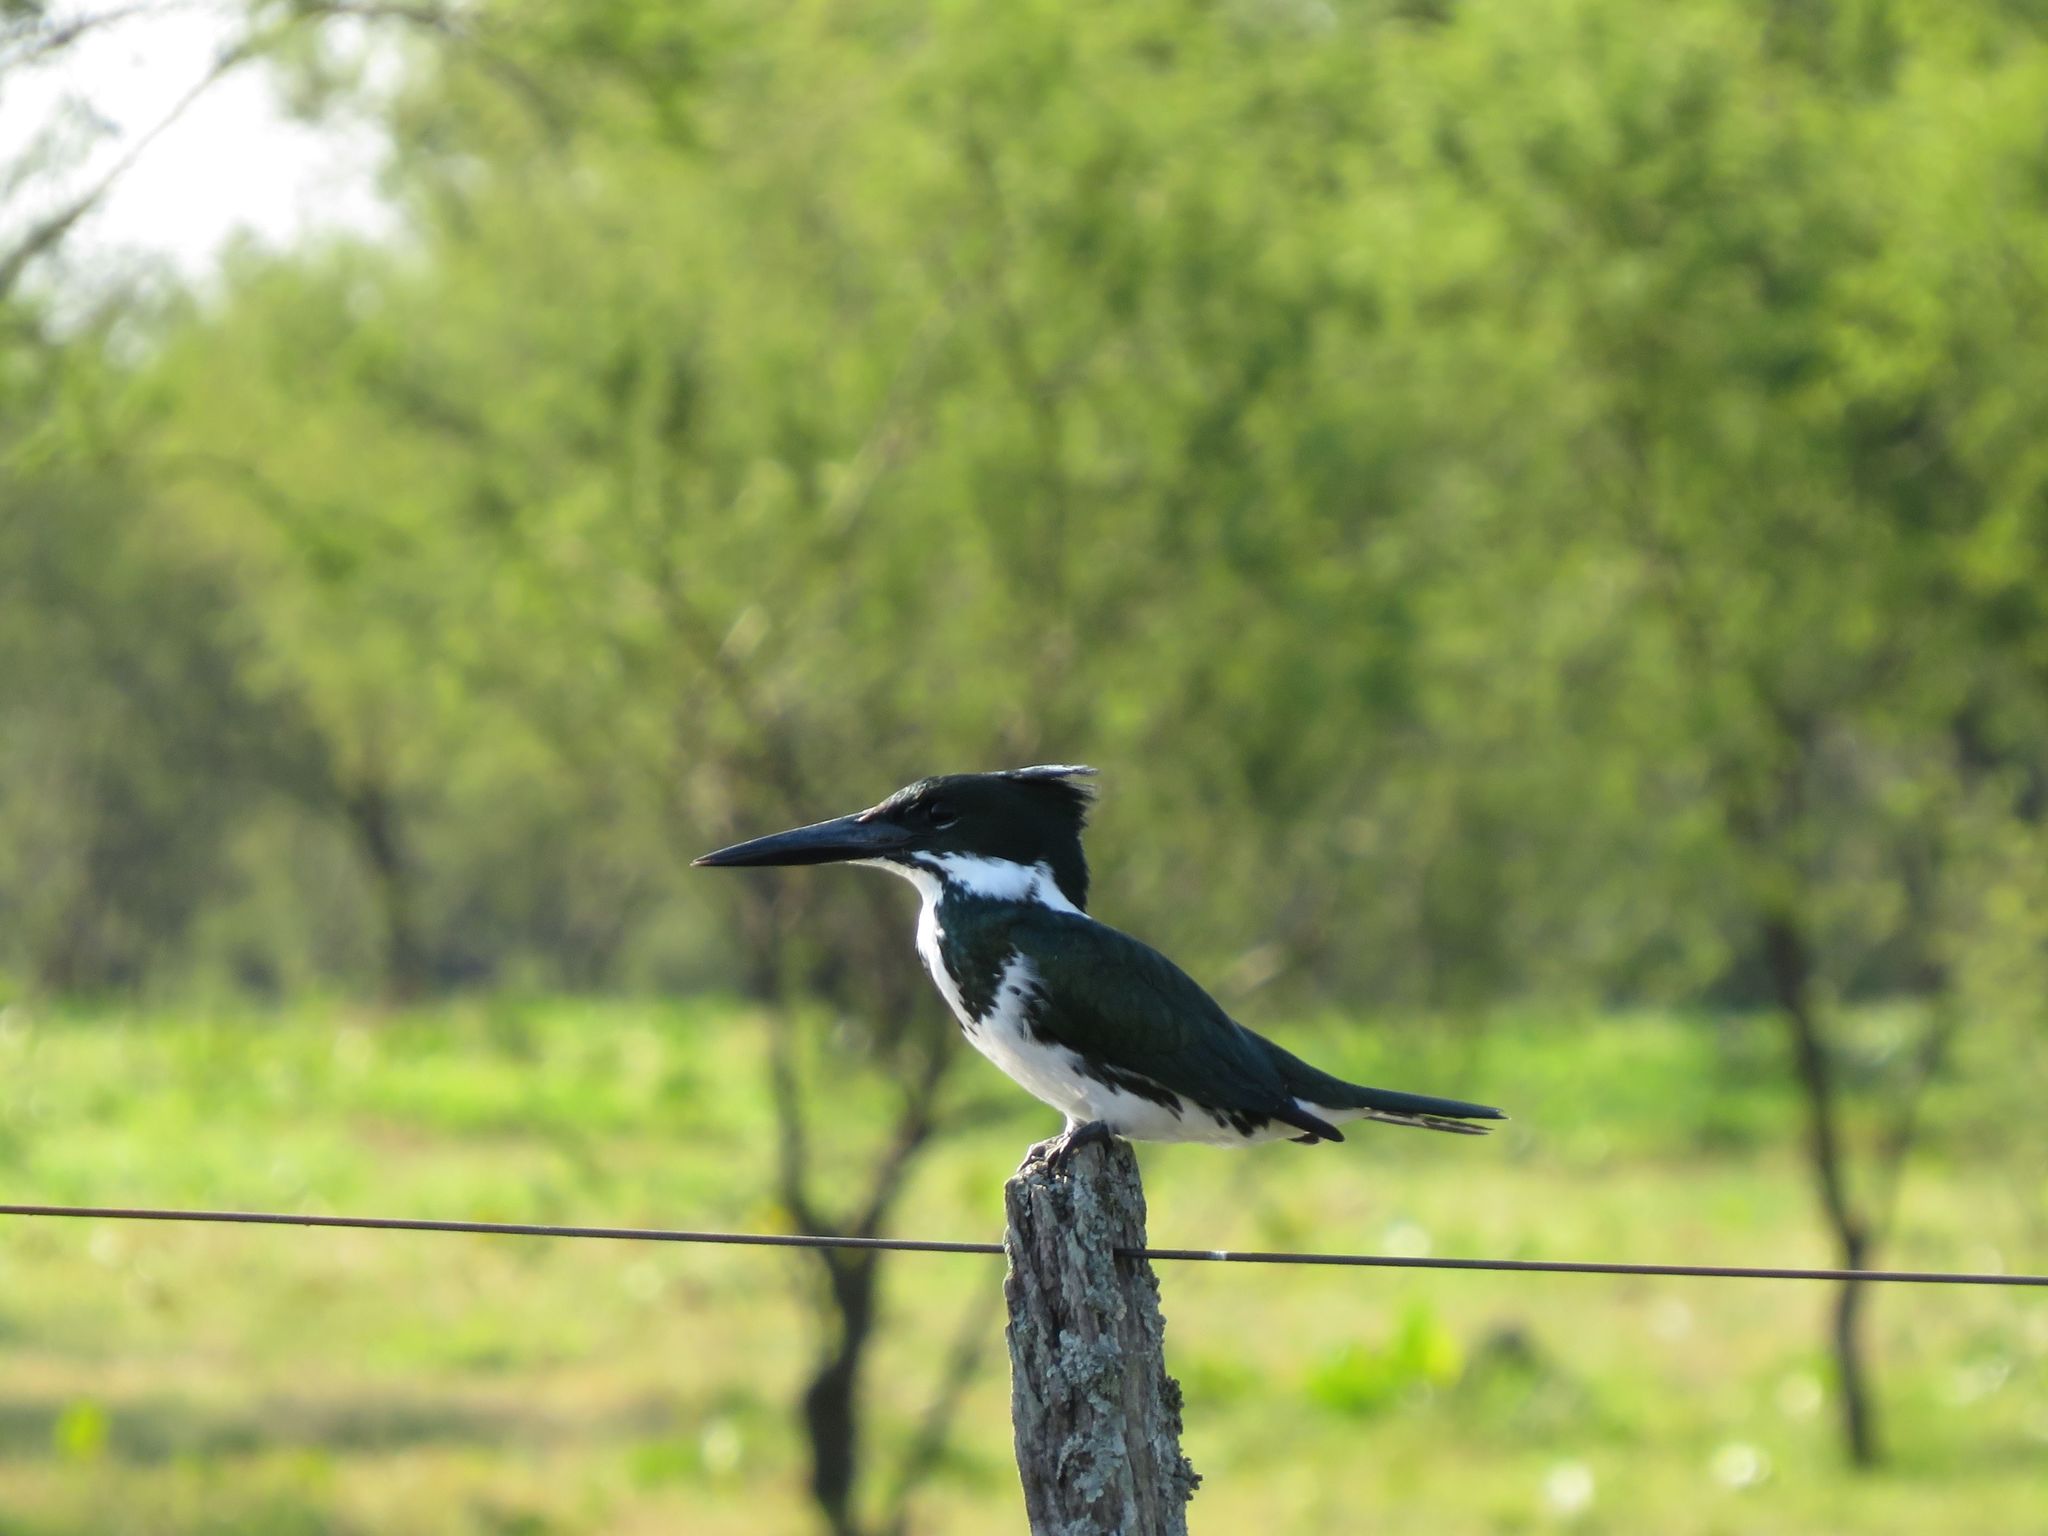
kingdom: Animalia
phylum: Chordata
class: Aves
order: Coraciiformes
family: Alcedinidae
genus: Chloroceryle
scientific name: Chloroceryle amazona
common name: Amazon kingfisher
